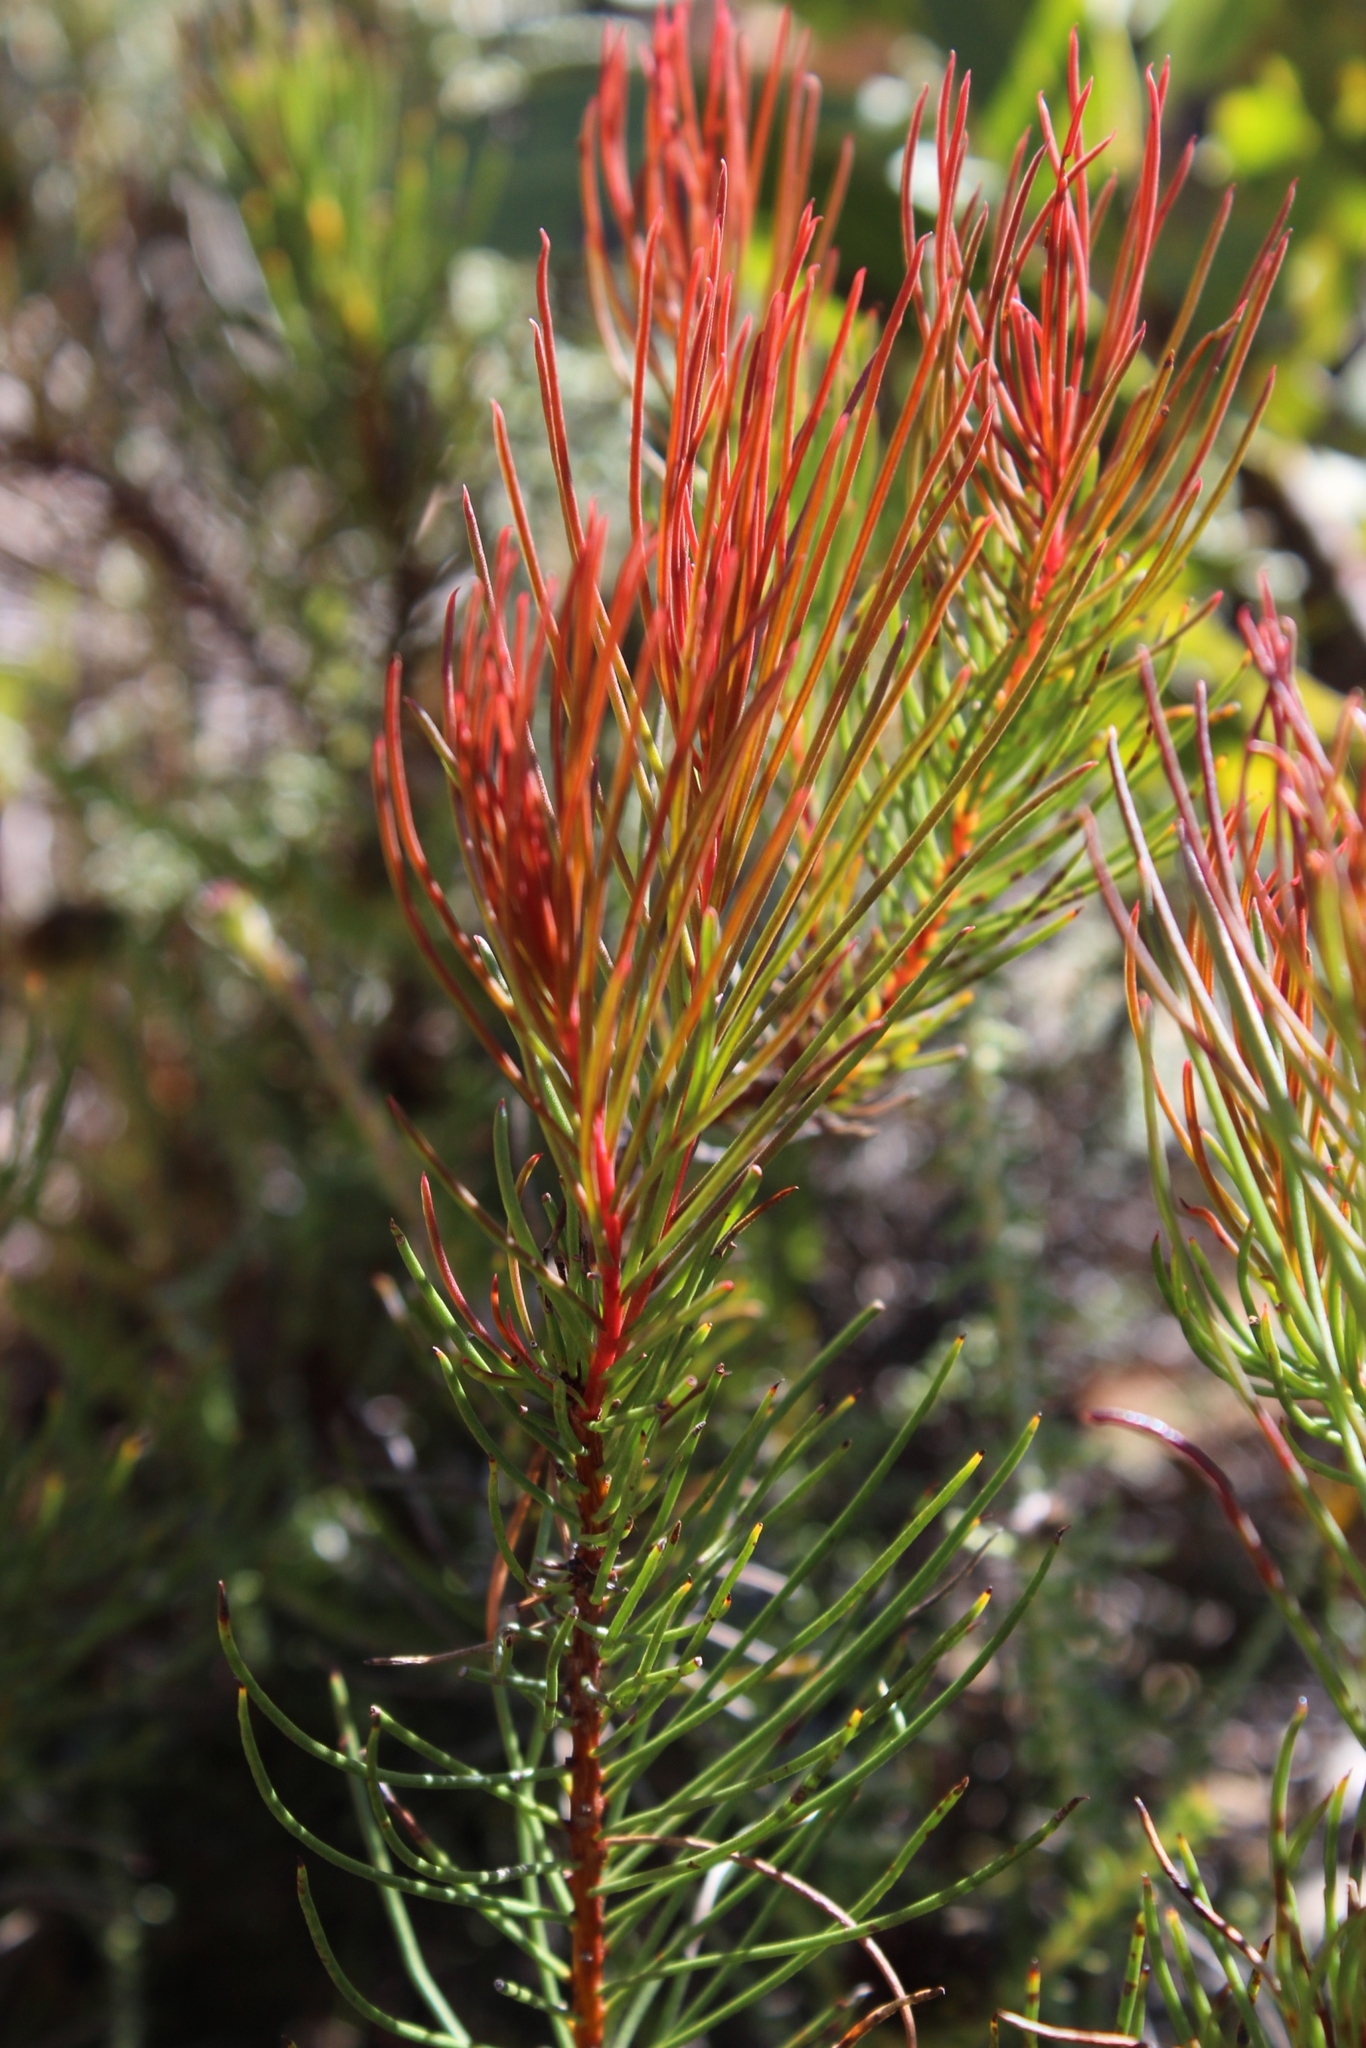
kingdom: Plantae
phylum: Tracheophyta
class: Magnoliopsida
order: Proteales
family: Proteaceae
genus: Protea
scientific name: Protea subulifolia
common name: Awl-leaf sugarbush
